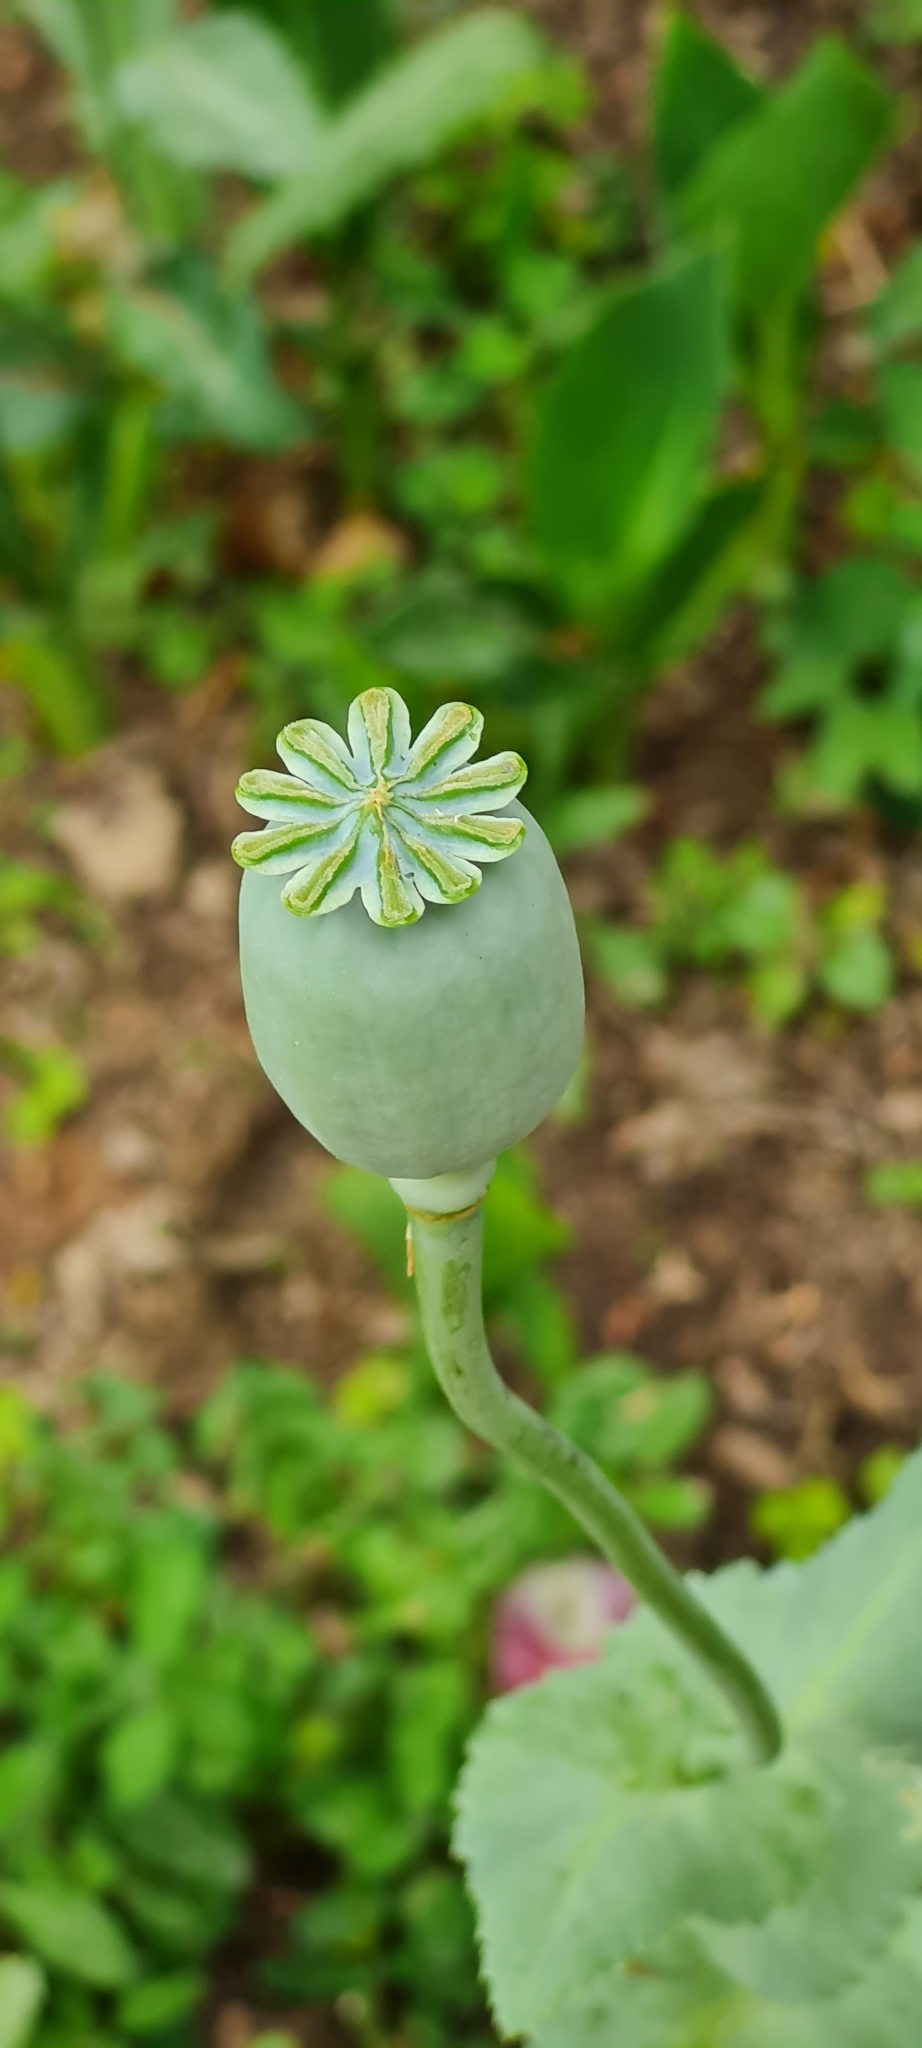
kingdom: Plantae
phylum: Tracheophyta
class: Magnoliopsida
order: Ranunculales
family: Papaveraceae
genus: Papaver
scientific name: Papaver somniferum
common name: Opium poppy
